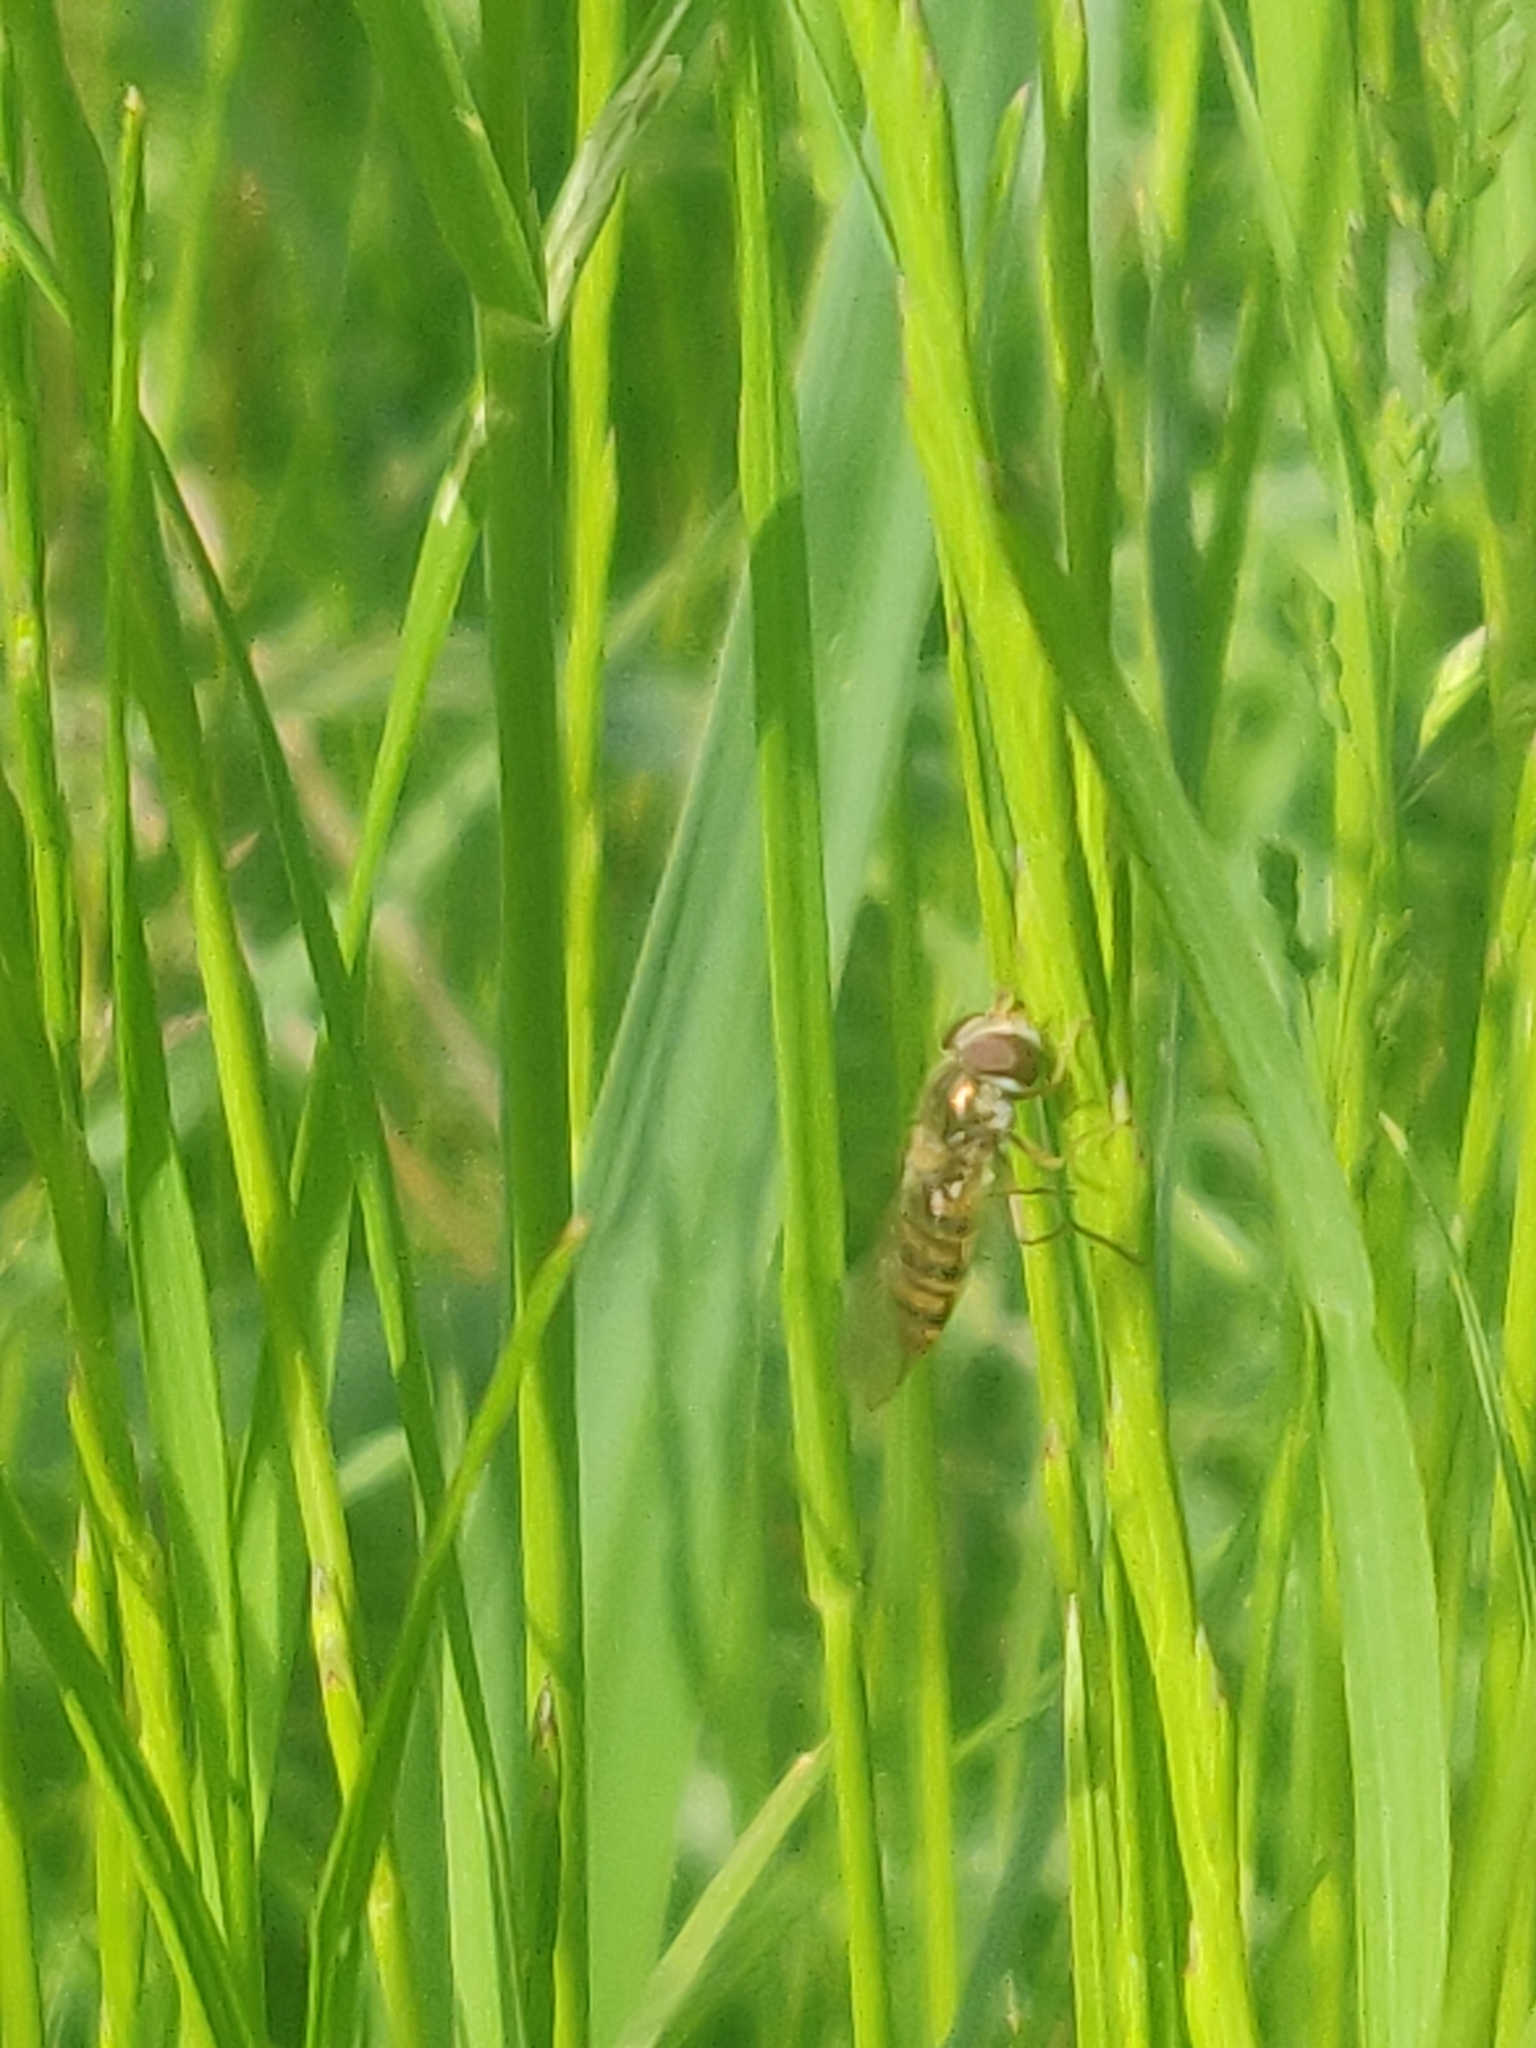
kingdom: Animalia
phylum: Arthropoda
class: Insecta
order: Diptera
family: Syrphidae
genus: Episyrphus
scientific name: Episyrphus balteatus
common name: Marmalade hoverfly
